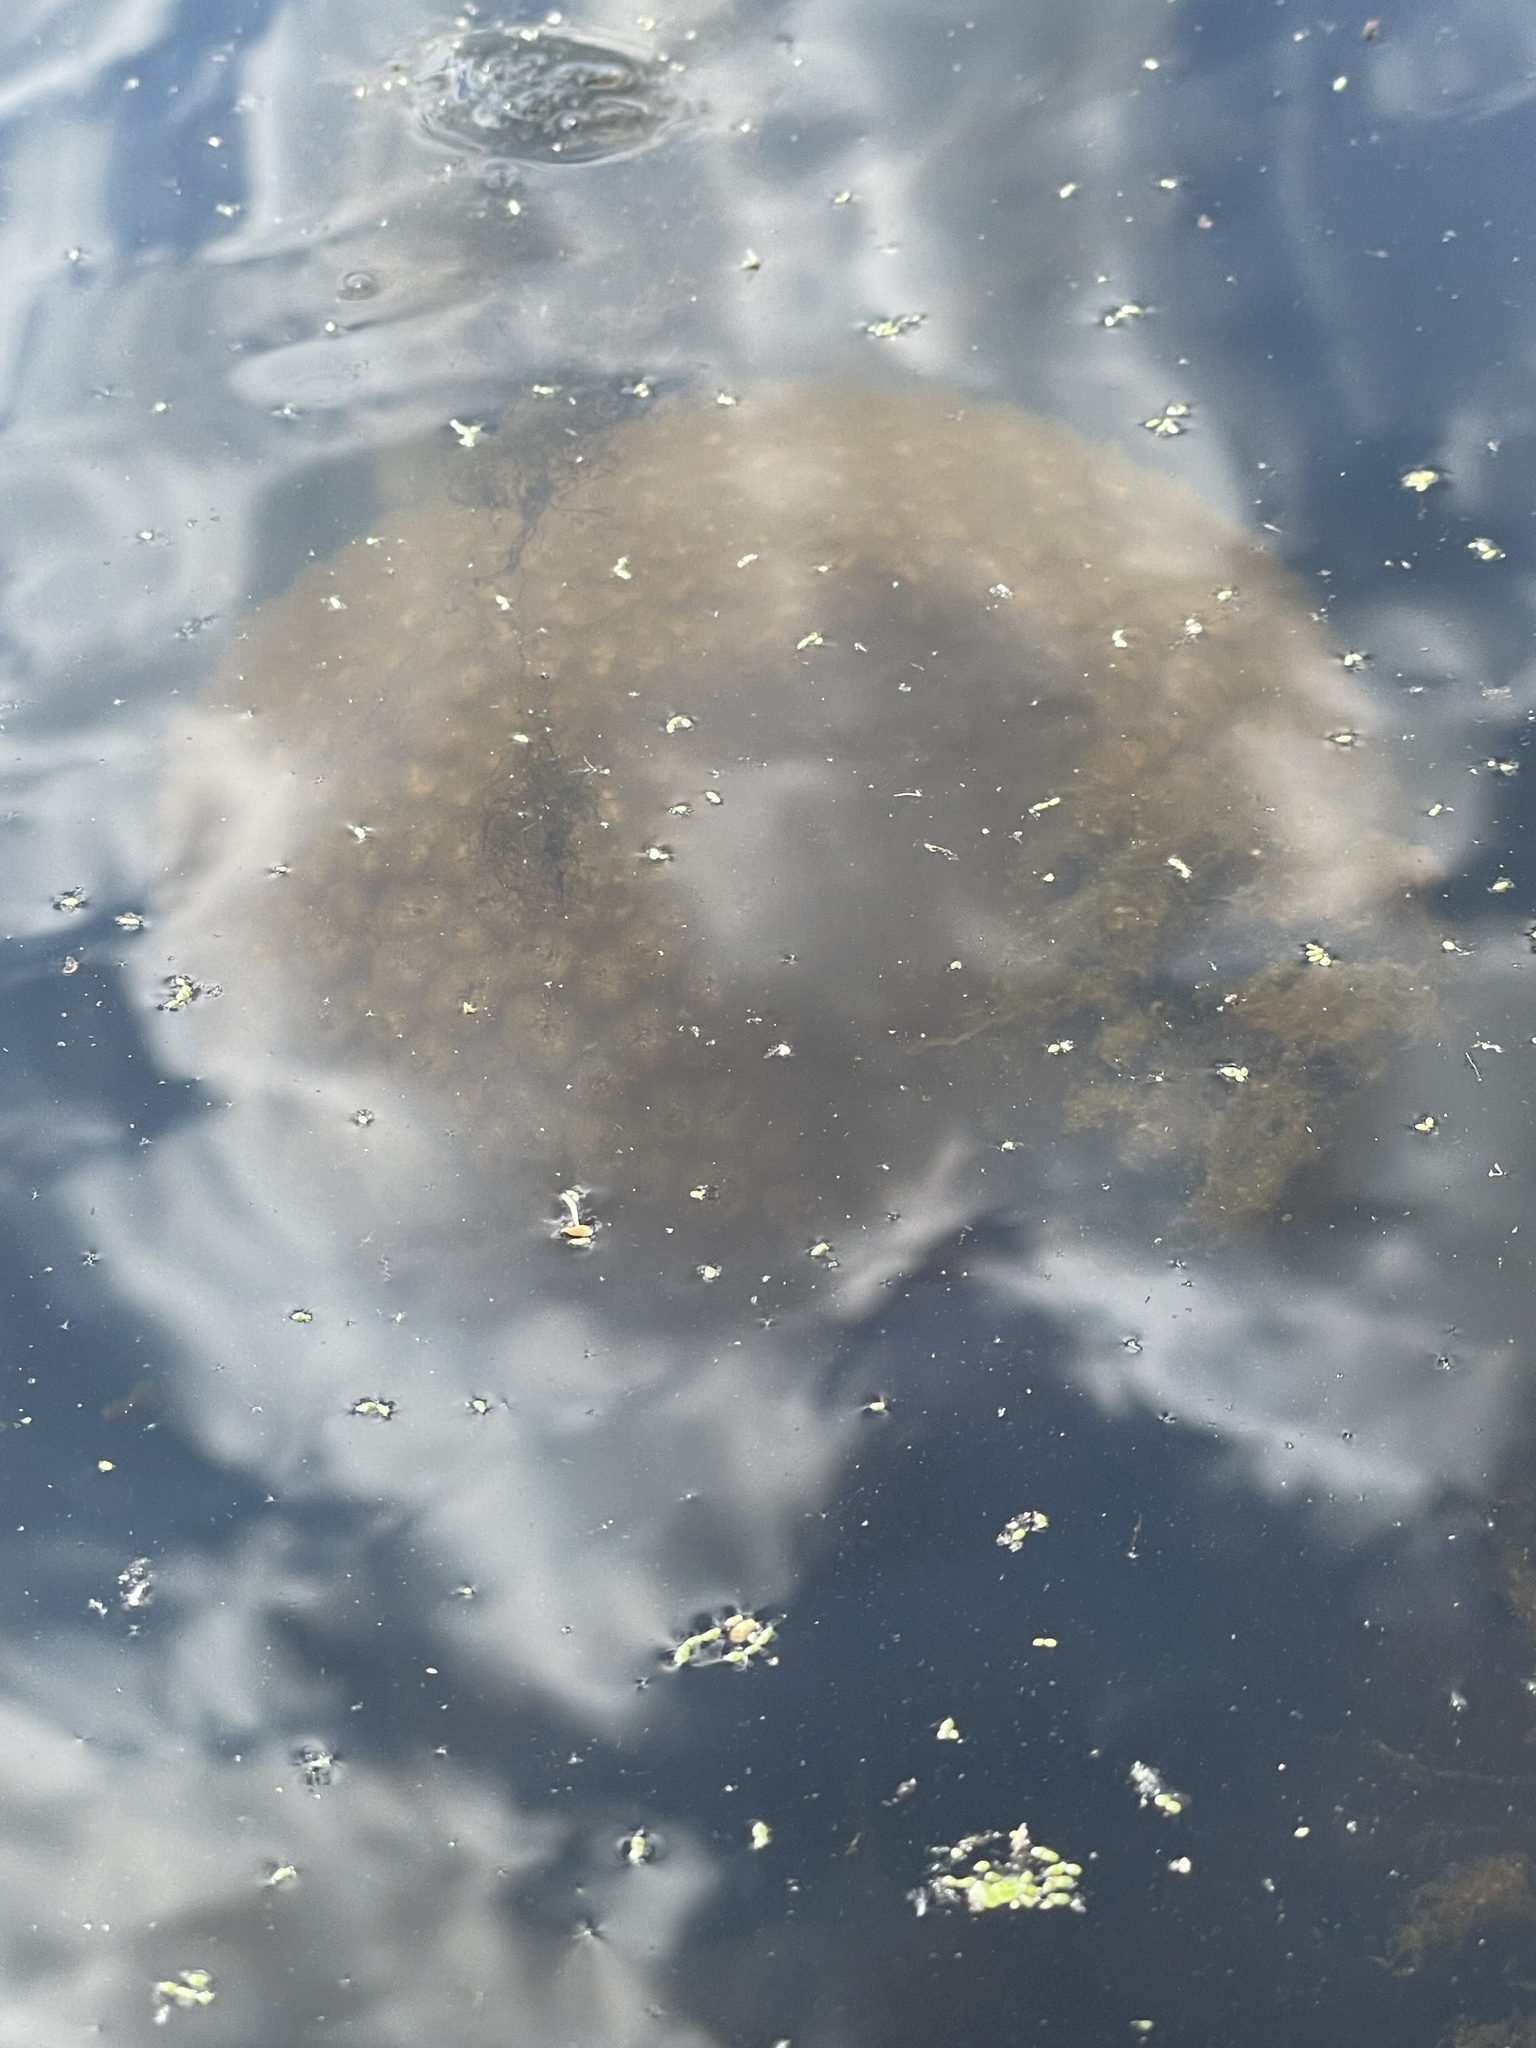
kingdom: Animalia
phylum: Bryozoa
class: Phylactolaemata
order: Plumatellida
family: Pectinatellidae
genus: Pectinatella
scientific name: Pectinatella magnifica
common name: Magnificent bryozoan
